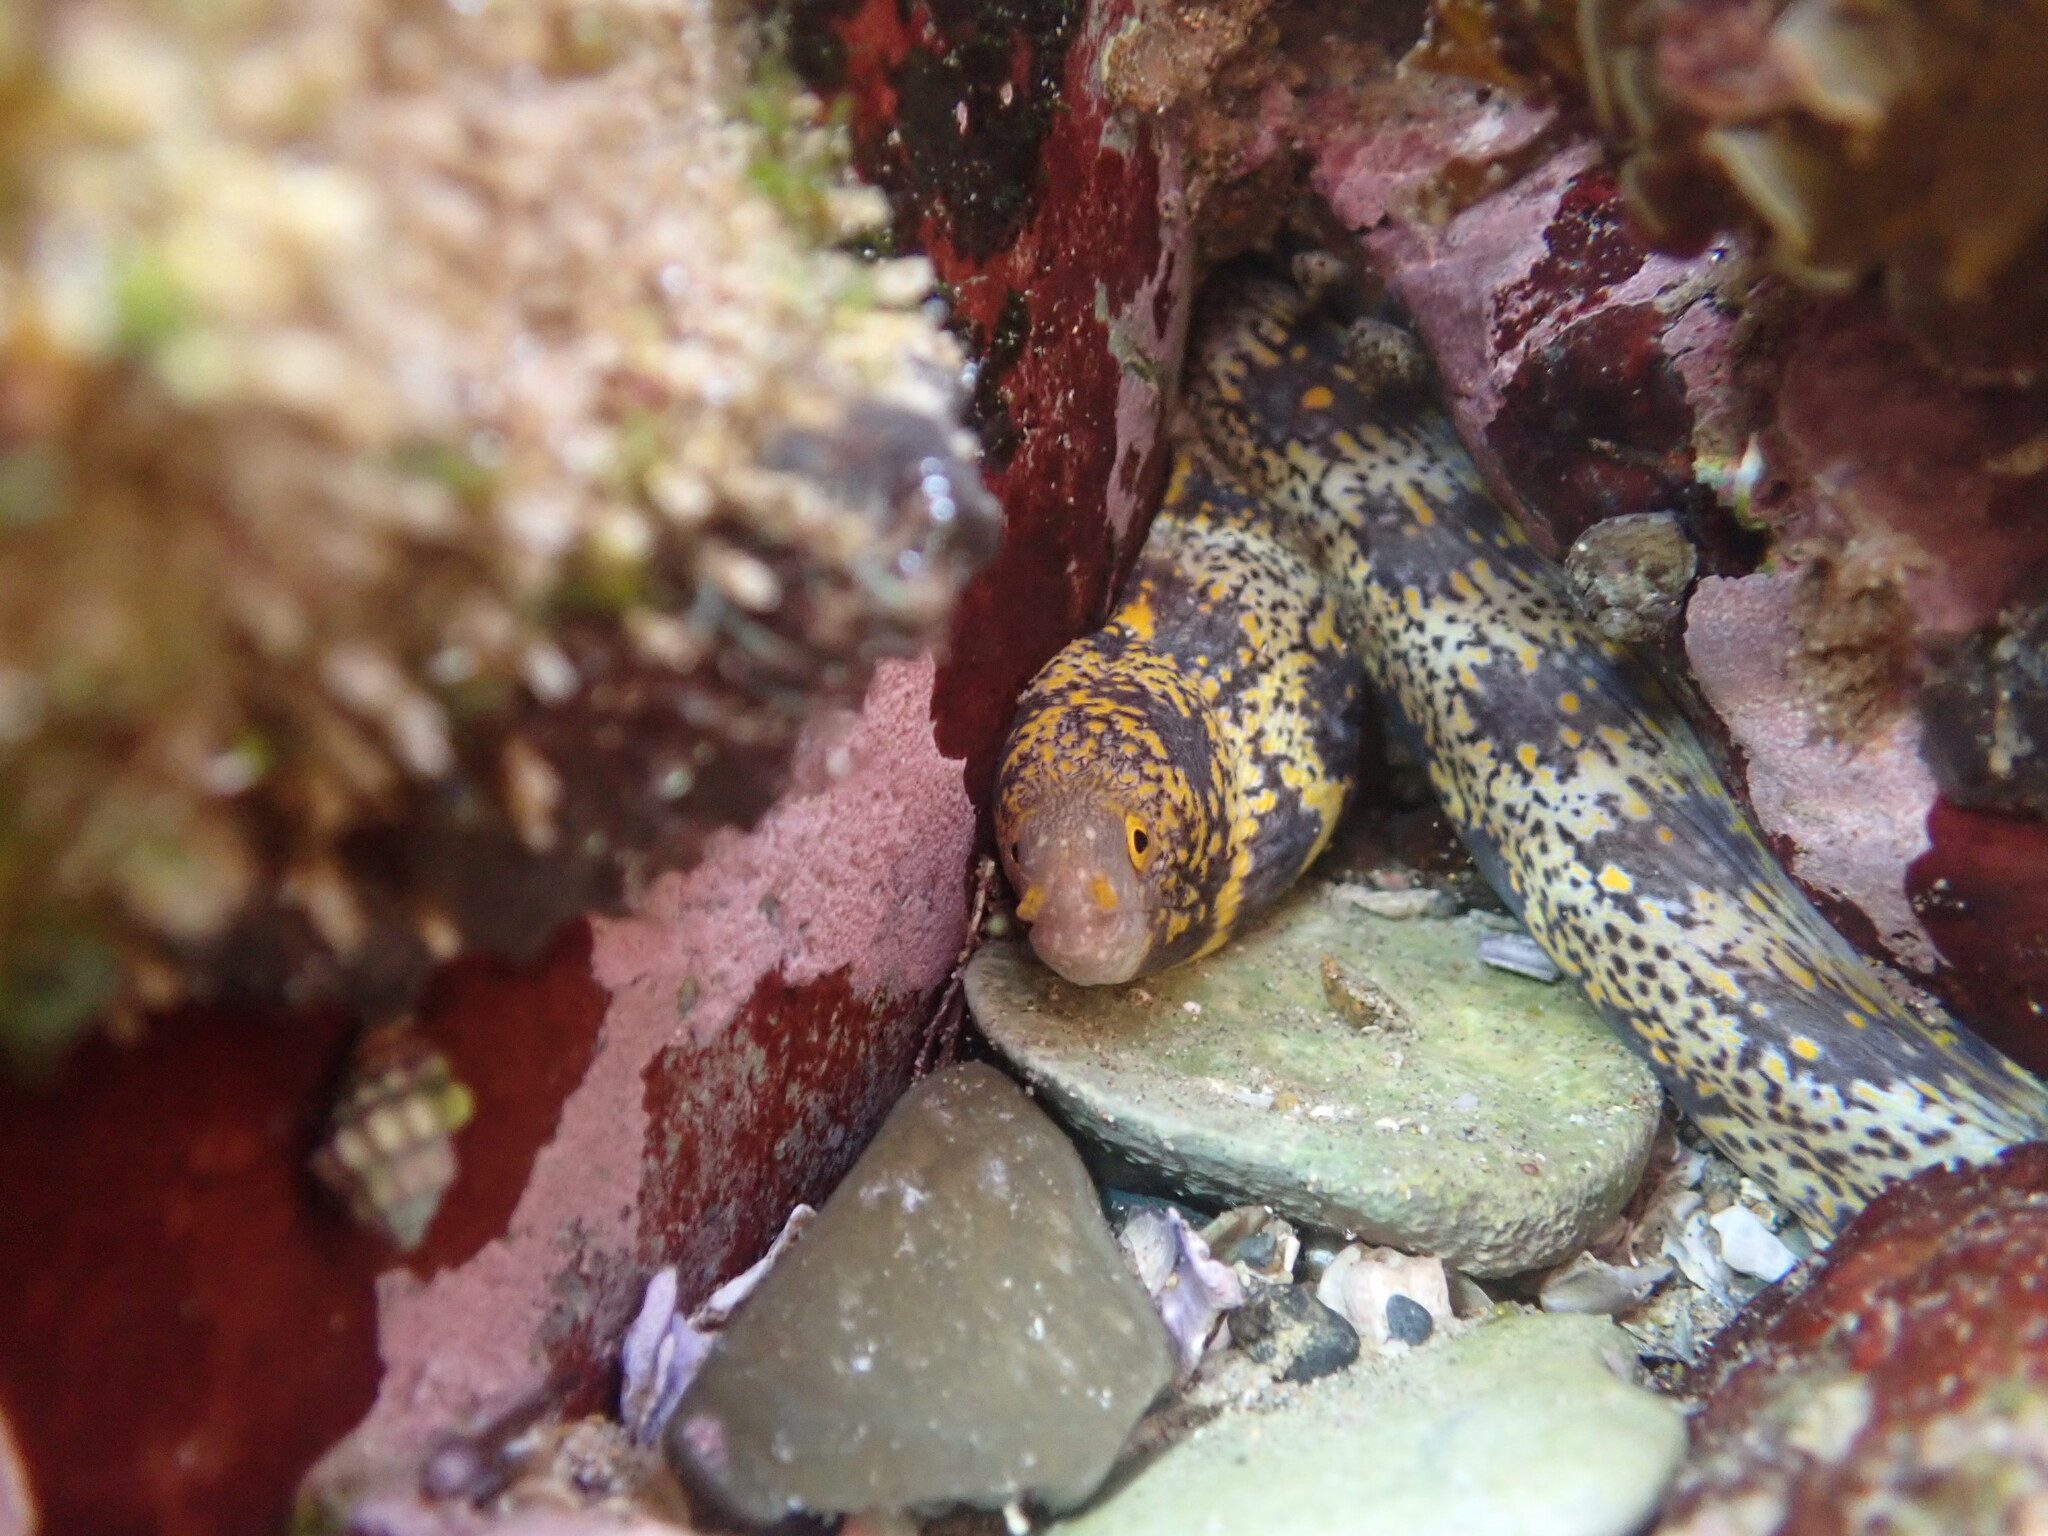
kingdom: Animalia
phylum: Chordata
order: Anguilliformes
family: Muraenidae
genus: Echidna
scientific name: Echidna nebulosa
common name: Snowflake moray
